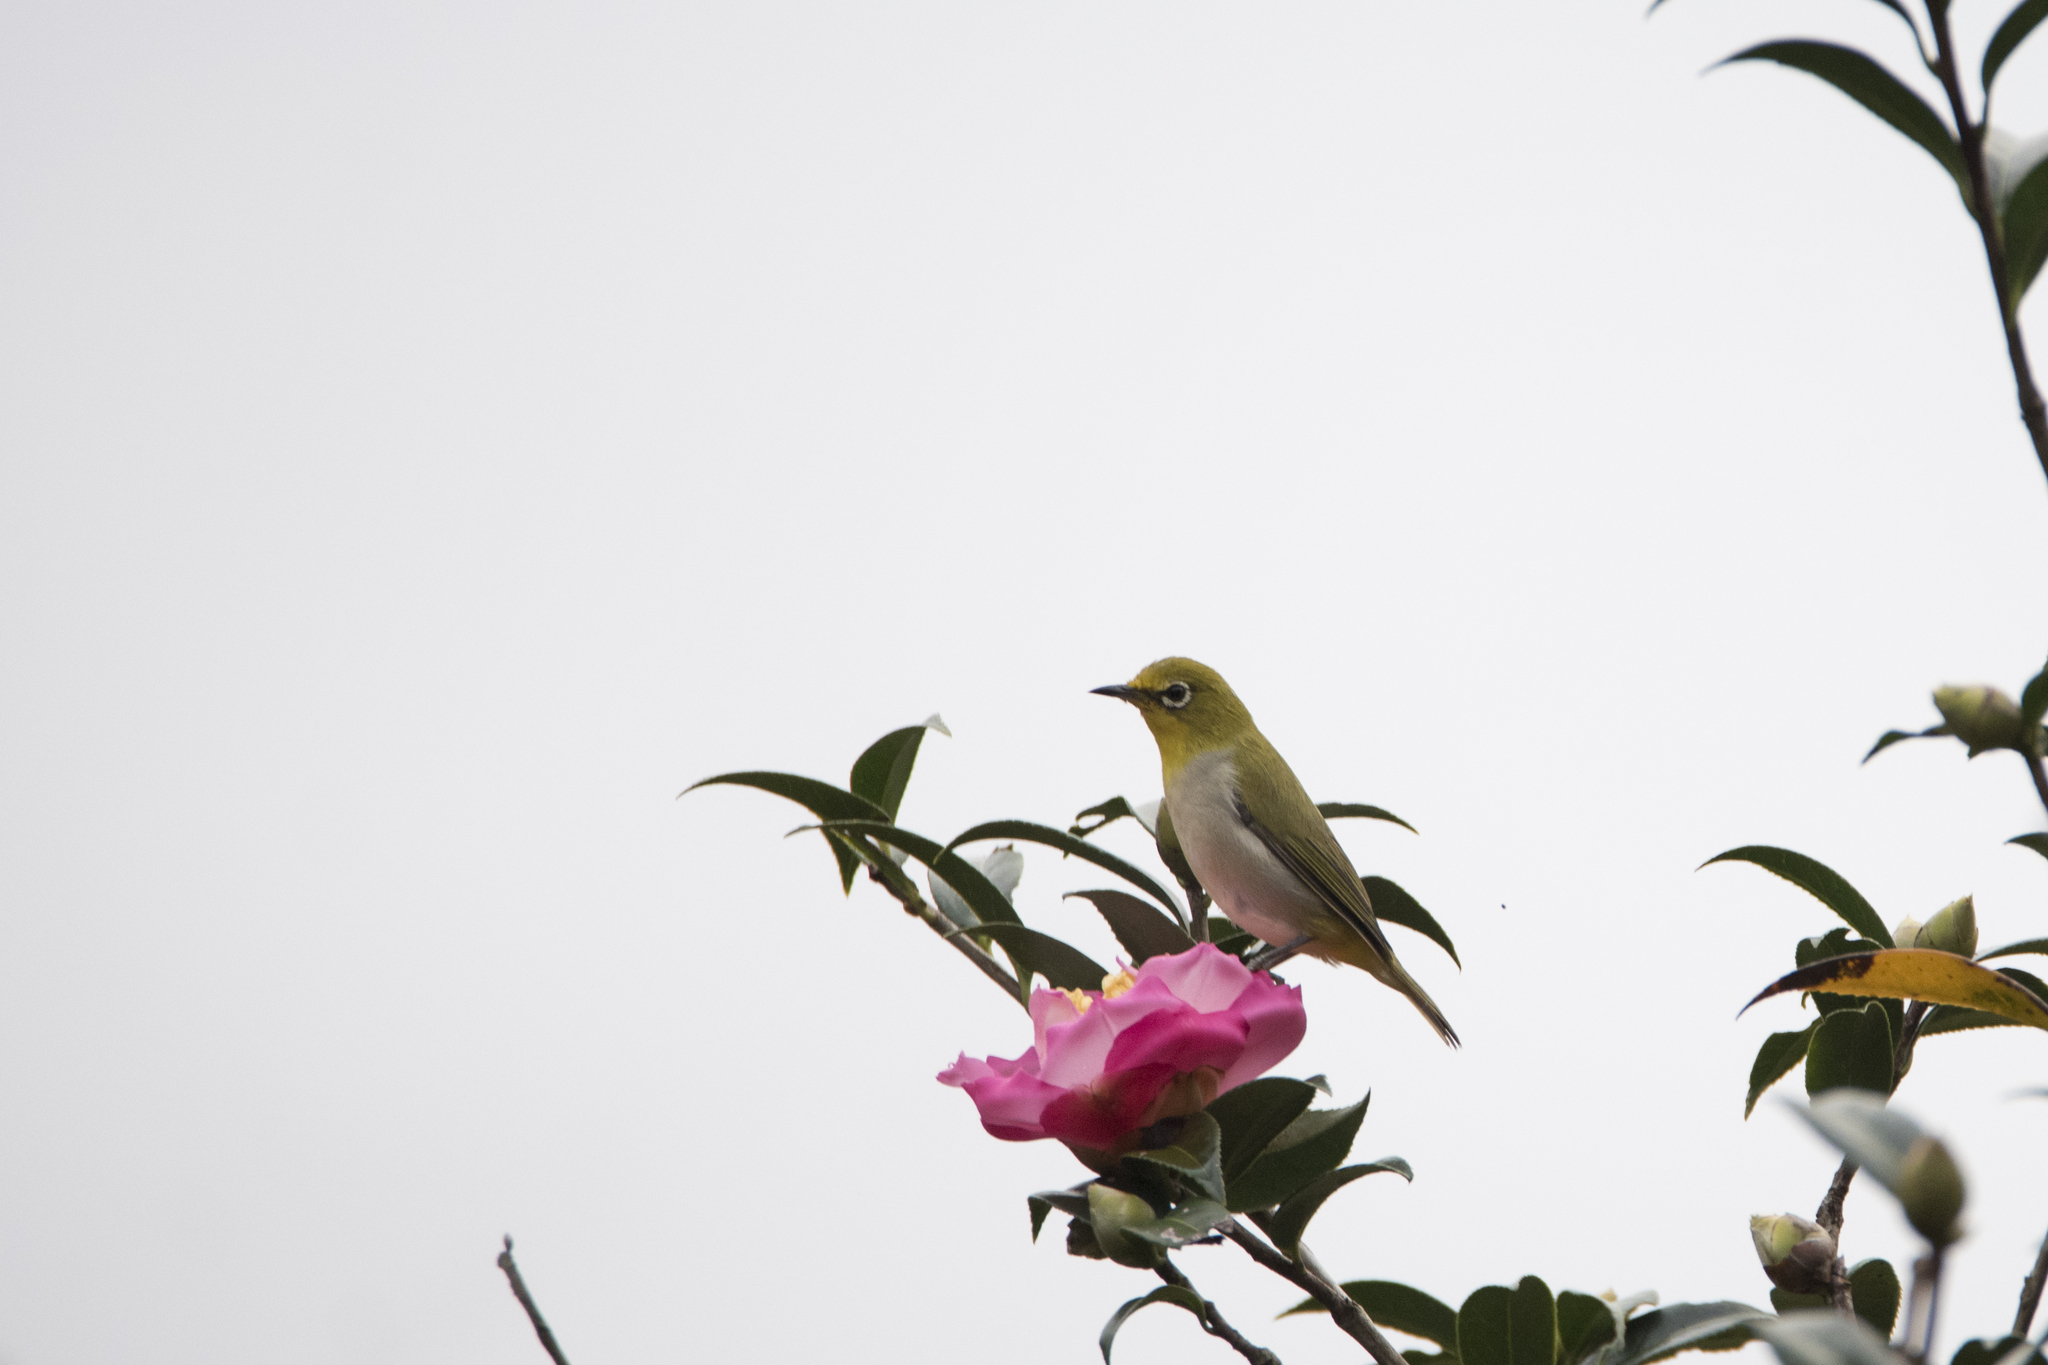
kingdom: Animalia
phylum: Chordata
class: Aves
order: Passeriformes
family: Zosteropidae
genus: Zosterops
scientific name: Zosterops simplex
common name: Swinhoe's white-eye
